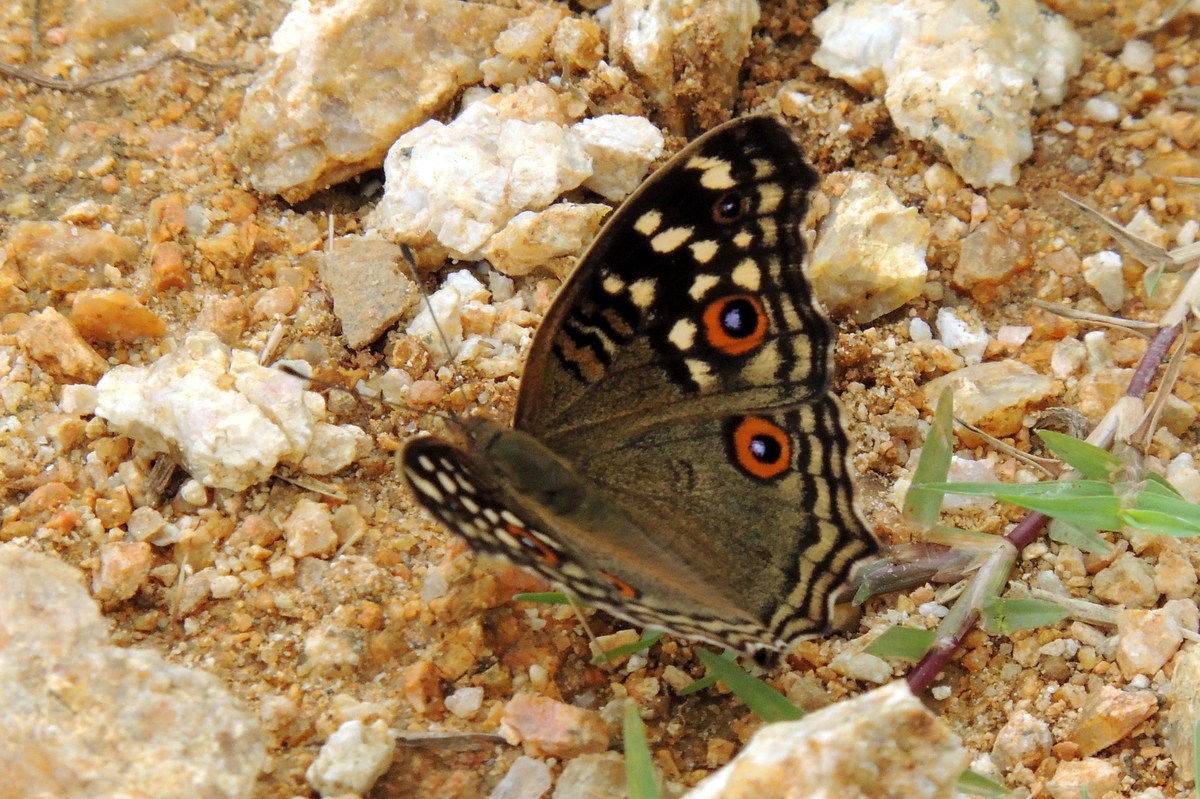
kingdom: Animalia
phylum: Arthropoda
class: Insecta
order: Lepidoptera
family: Nymphalidae
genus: Junonia
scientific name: Junonia lemonias
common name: Lemon pansy
